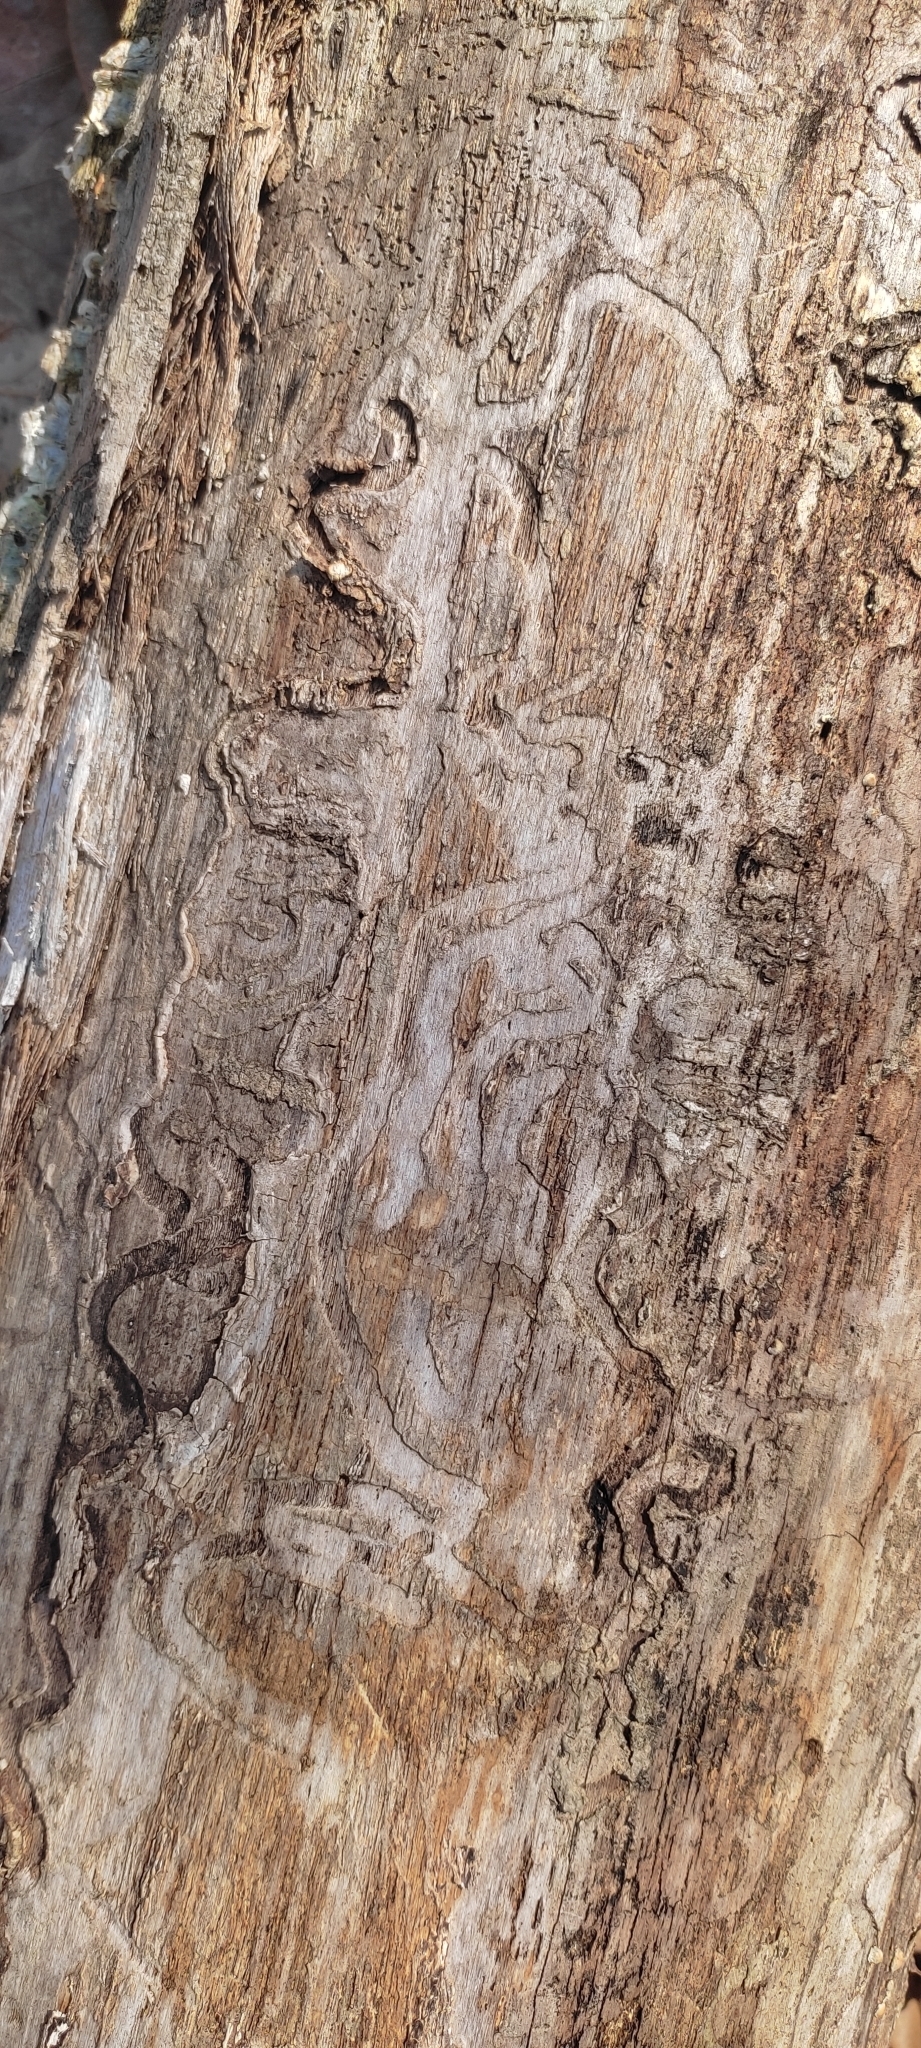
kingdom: Animalia
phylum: Arthropoda
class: Insecta
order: Coleoptera
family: Buprestidae
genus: Agrilus
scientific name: Agrilus planipennis
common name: Emerald ash borer
